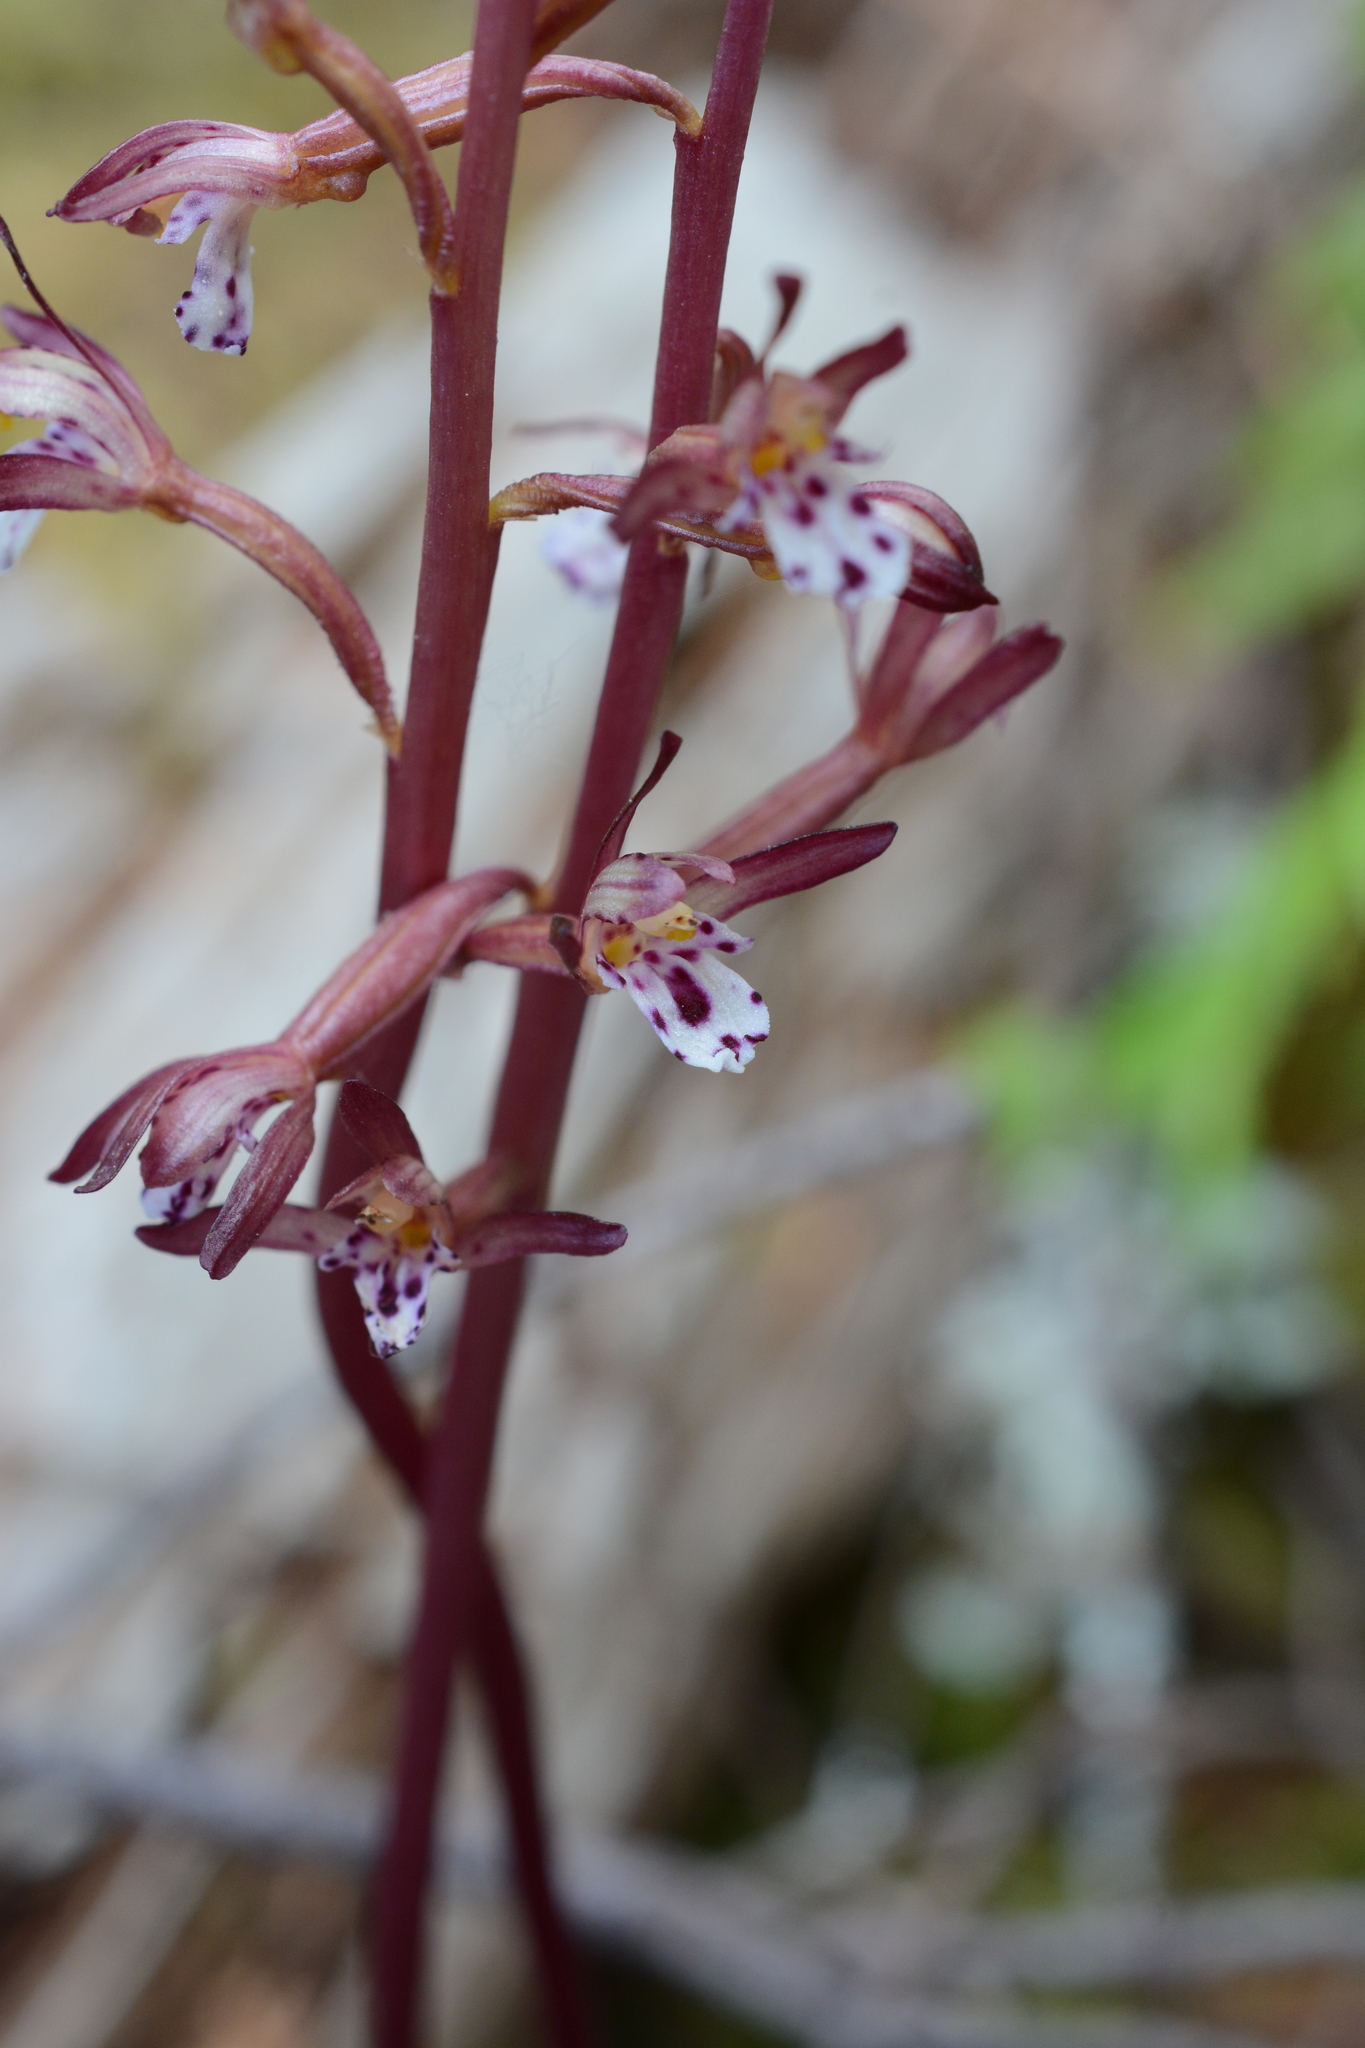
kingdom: Plantae
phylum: Tracheophyta
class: Liliopsida
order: Asparagales
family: Orchidaceae
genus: Corallorhiza
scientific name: Corallorhiza maculata
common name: Spotted coralroot
